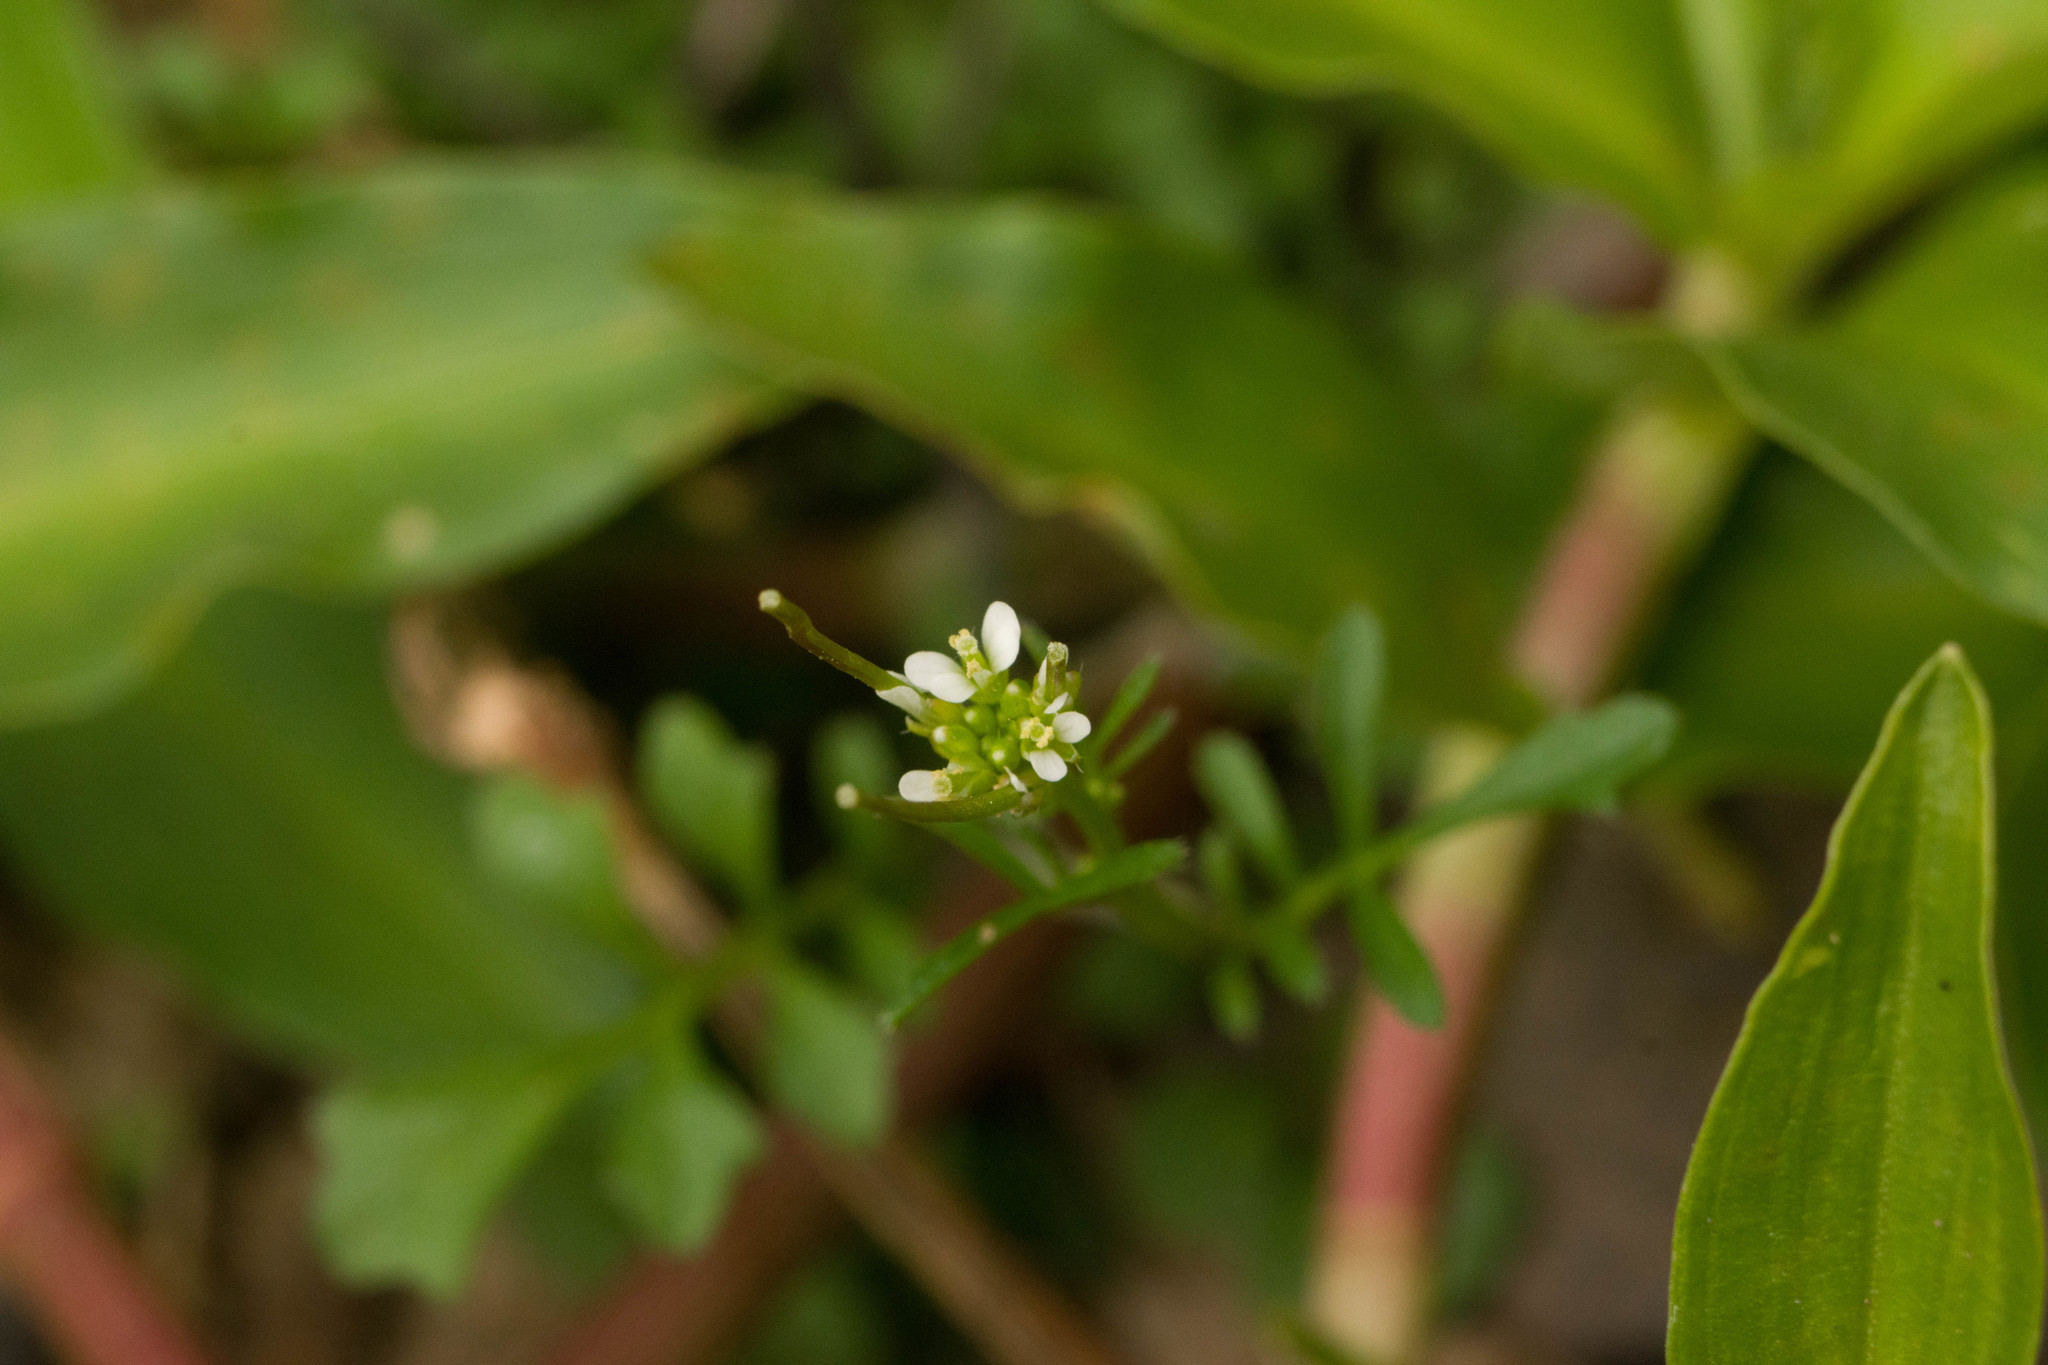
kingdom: Plantae
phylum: Tracheophyta
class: Magnoliopsida
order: Brassicales
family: Brassicaceae
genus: Cardamine
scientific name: Cardamine hirsuta
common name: Hairy bittercress
